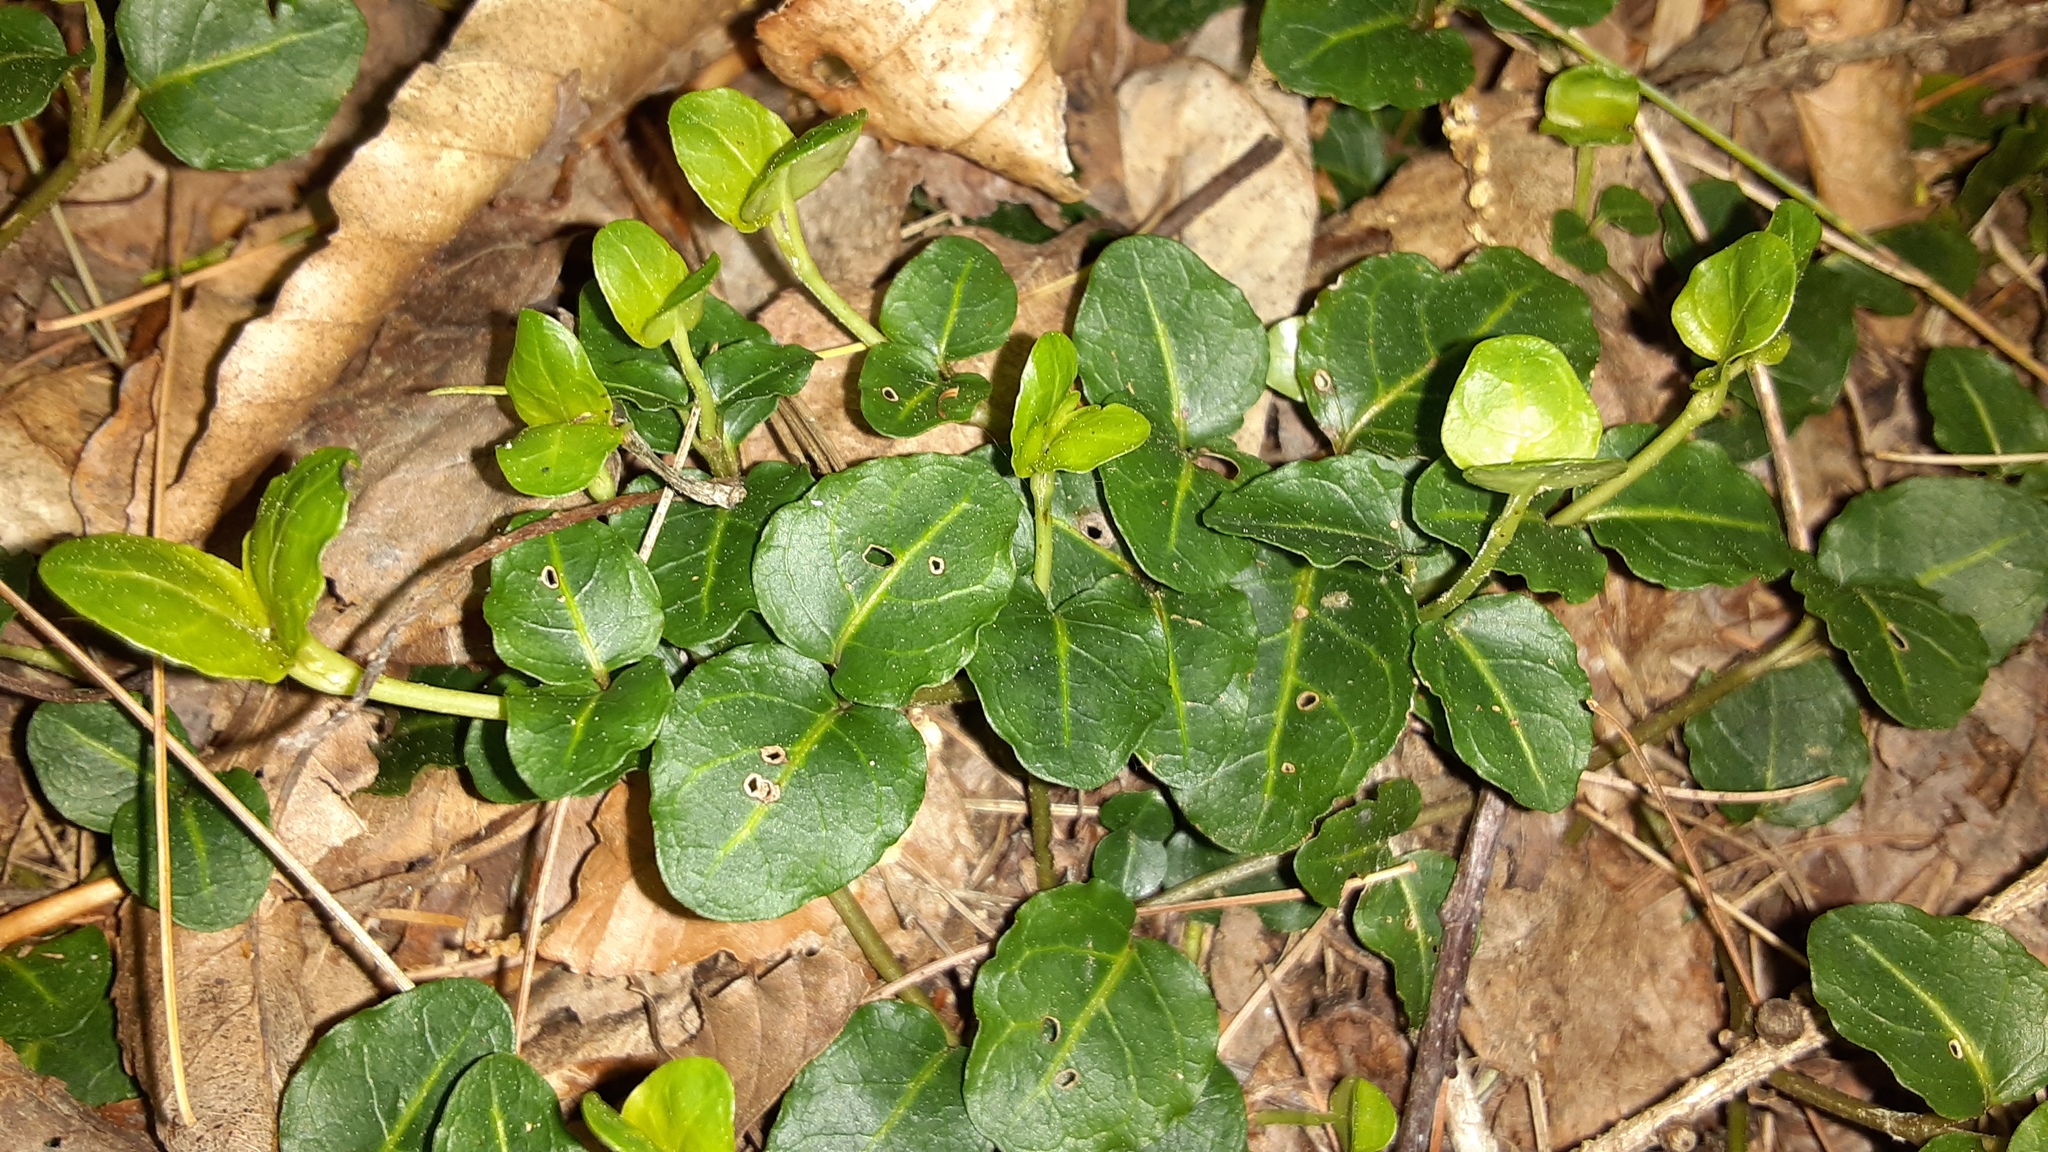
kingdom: Plantae
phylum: Tracheophyta
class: Magnoliopsida
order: Gentianales
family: Rubiaceae
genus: Mitchella
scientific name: Mitchella repens
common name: Partridge-berry
